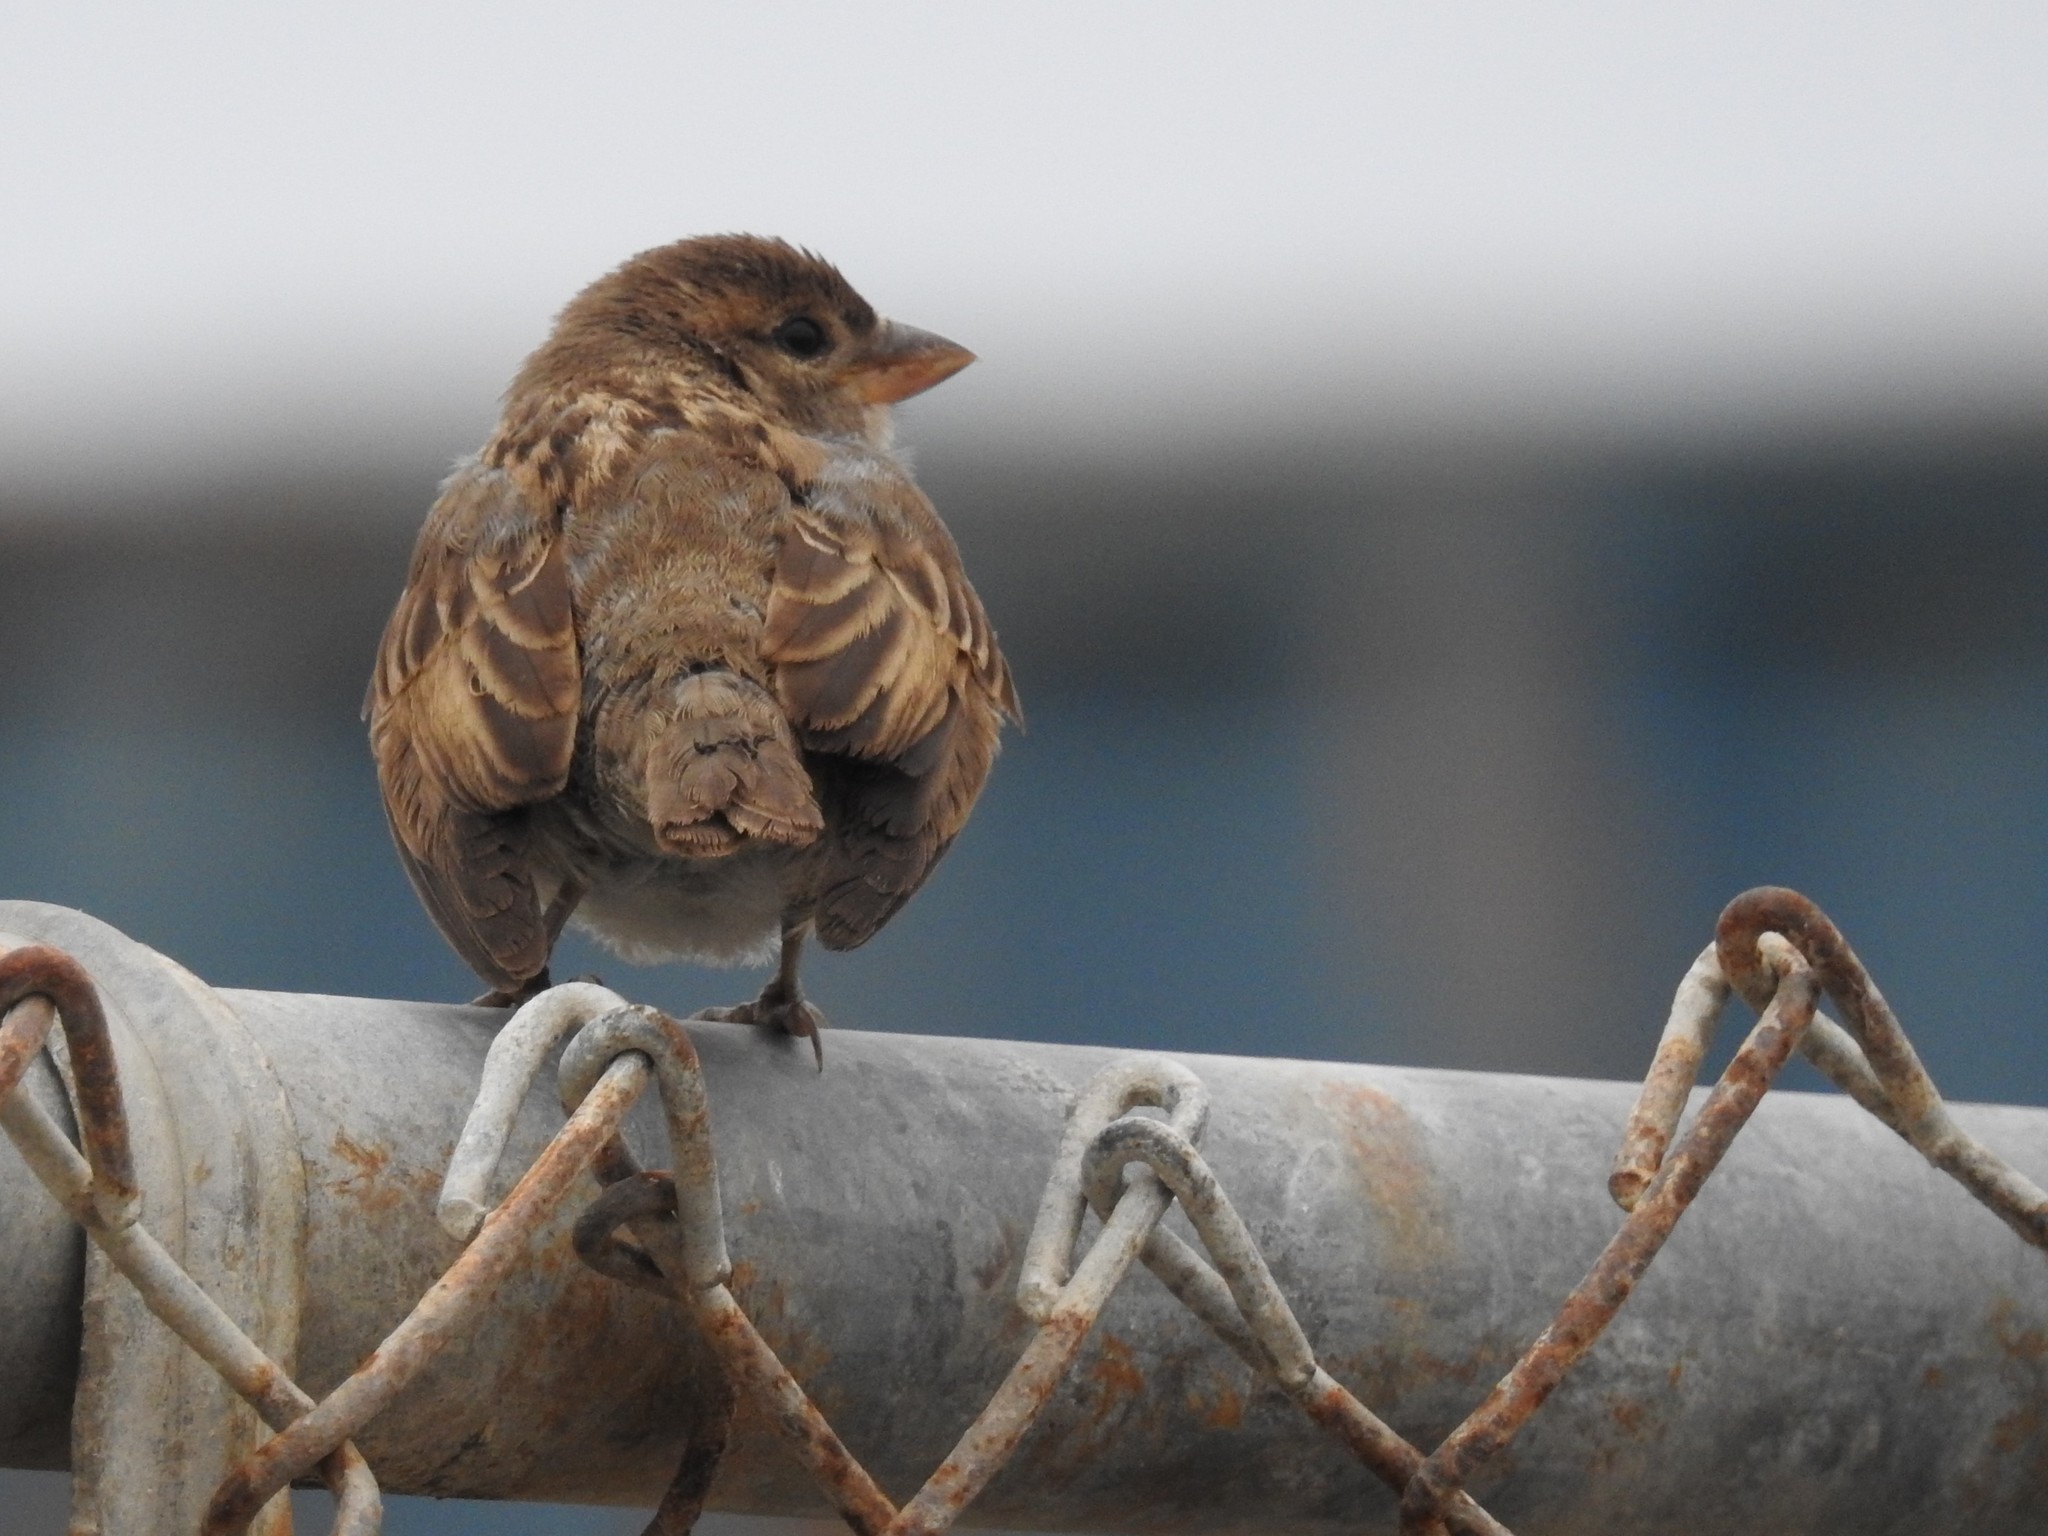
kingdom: Animalia
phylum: Chordata
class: Aves
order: Passeriformes
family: Passeridae
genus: Passer
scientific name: Passer domesticus
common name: House sparrow
